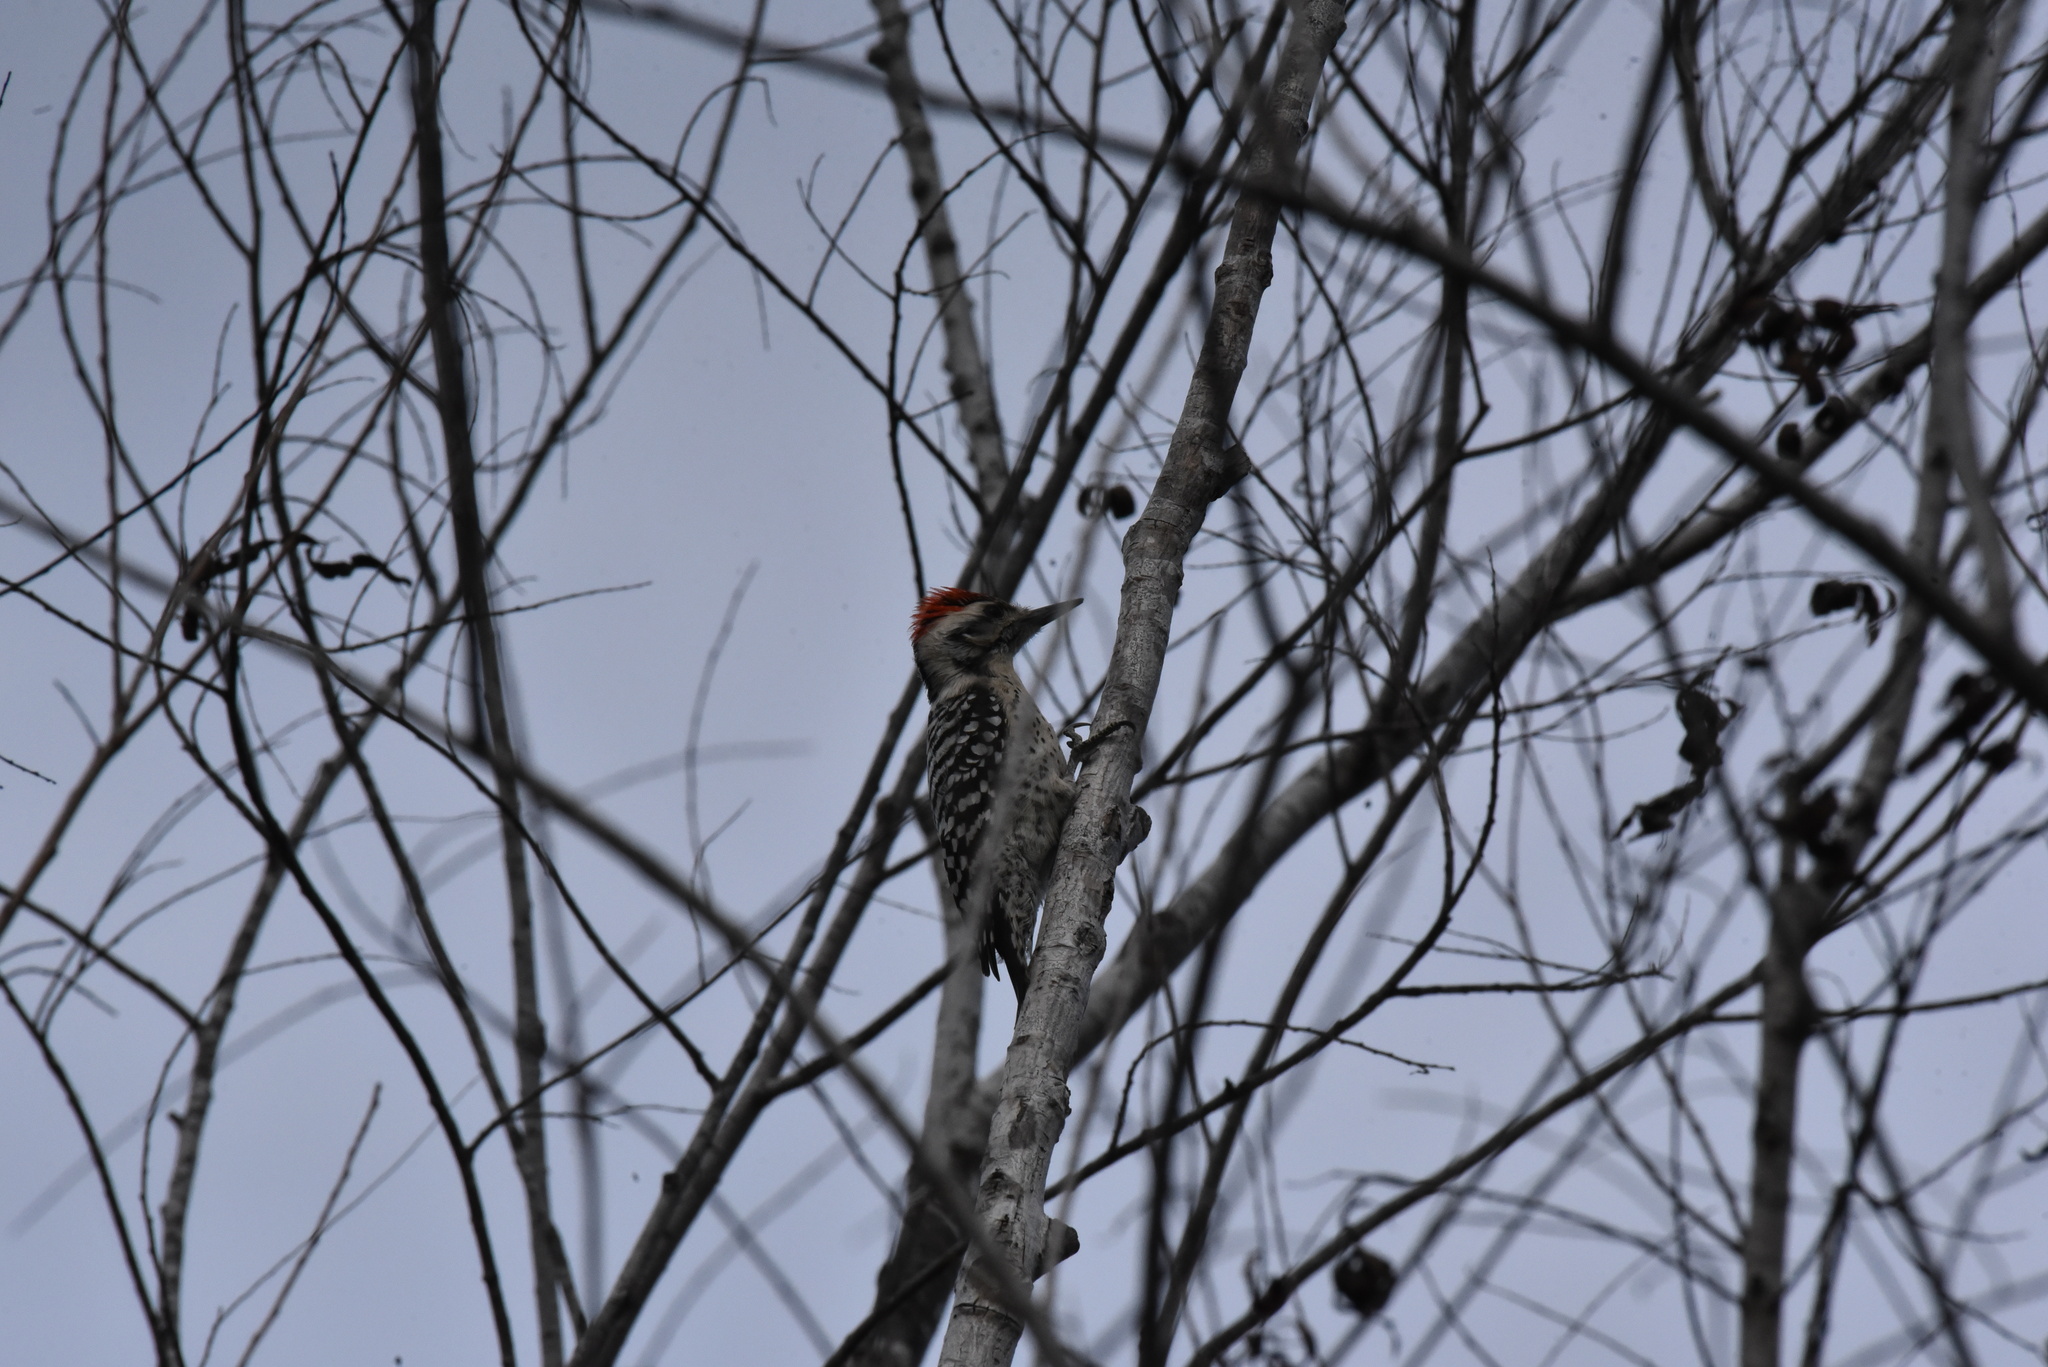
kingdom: Animalia
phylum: Chordata
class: Aves
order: Piciformes
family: Picidae
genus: Dryobates
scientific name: Dryobates scalaris
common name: Ladder-backed woodpecker
